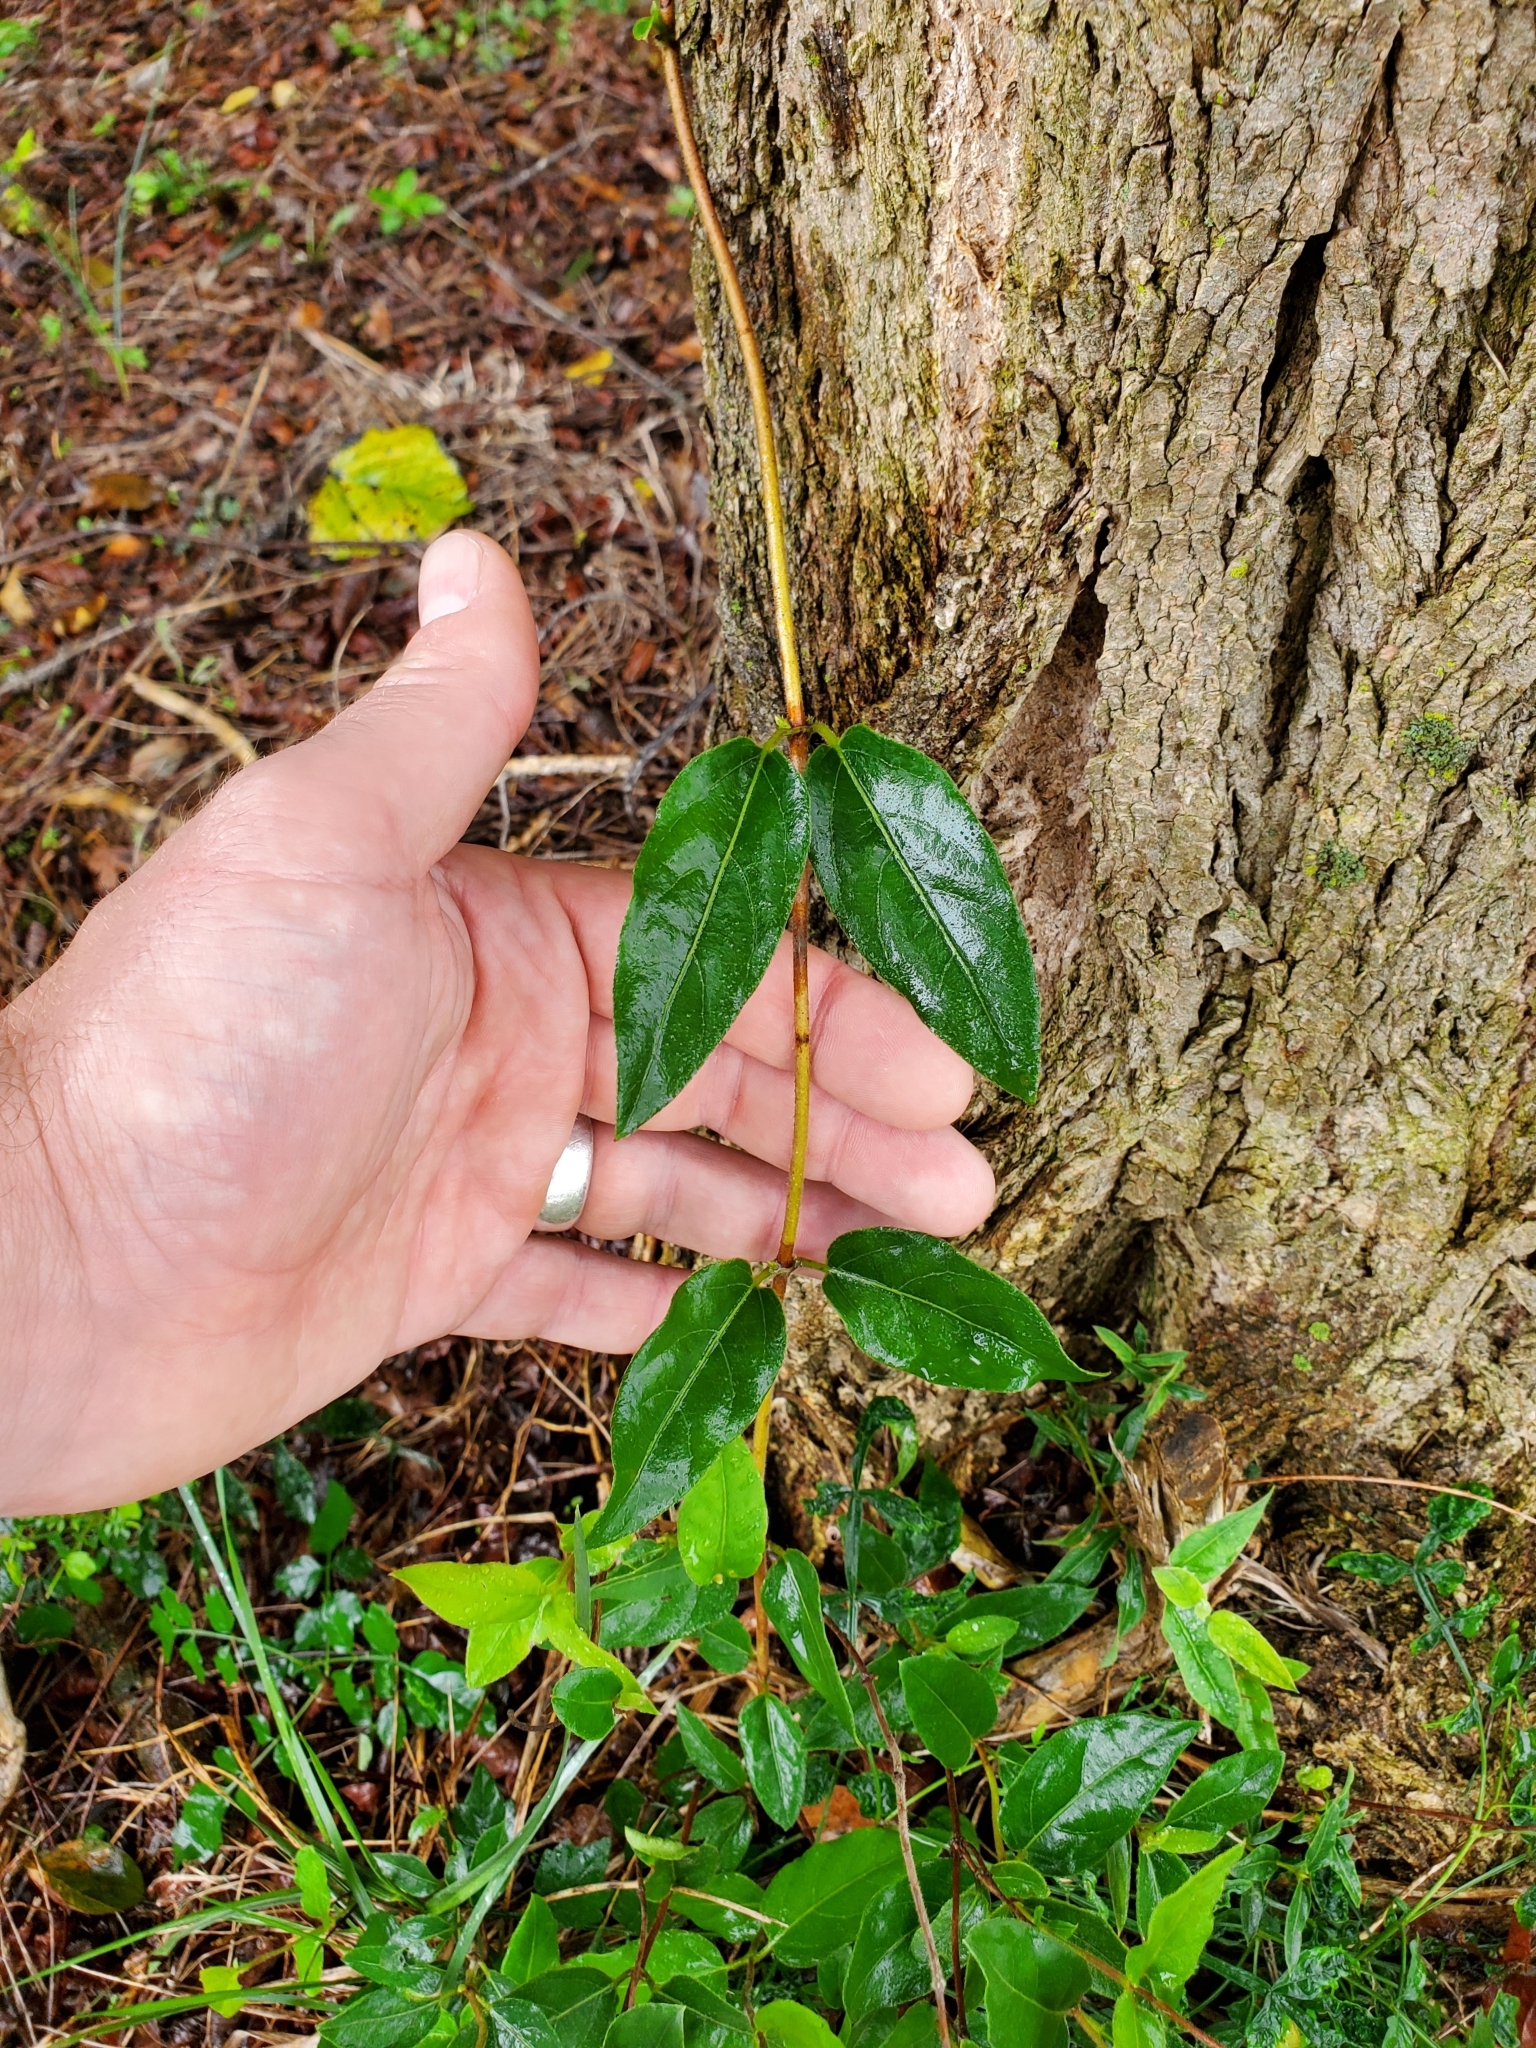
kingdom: Plantae
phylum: Tracheophyta
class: Magnoliopsida
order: Dipsacales
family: Caprifoliaceae
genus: Lonicera
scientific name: Lonicera japonica
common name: Japanese honeysuckle
